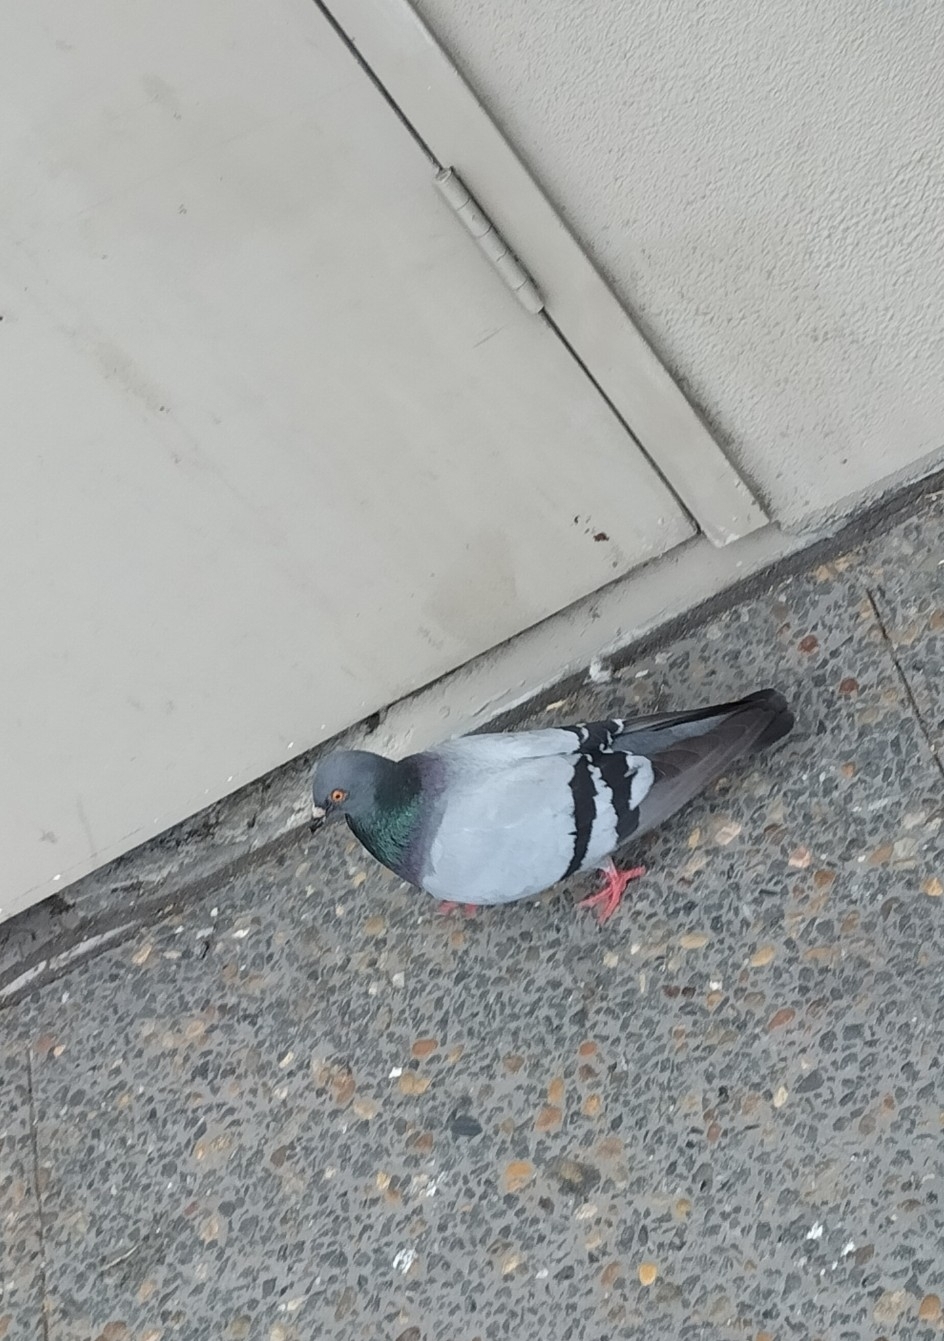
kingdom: Animalia
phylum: Chordata
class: Aves
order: Columbiformes
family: Columbidae
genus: Columba
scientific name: Columba livia
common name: Rock pigeon
